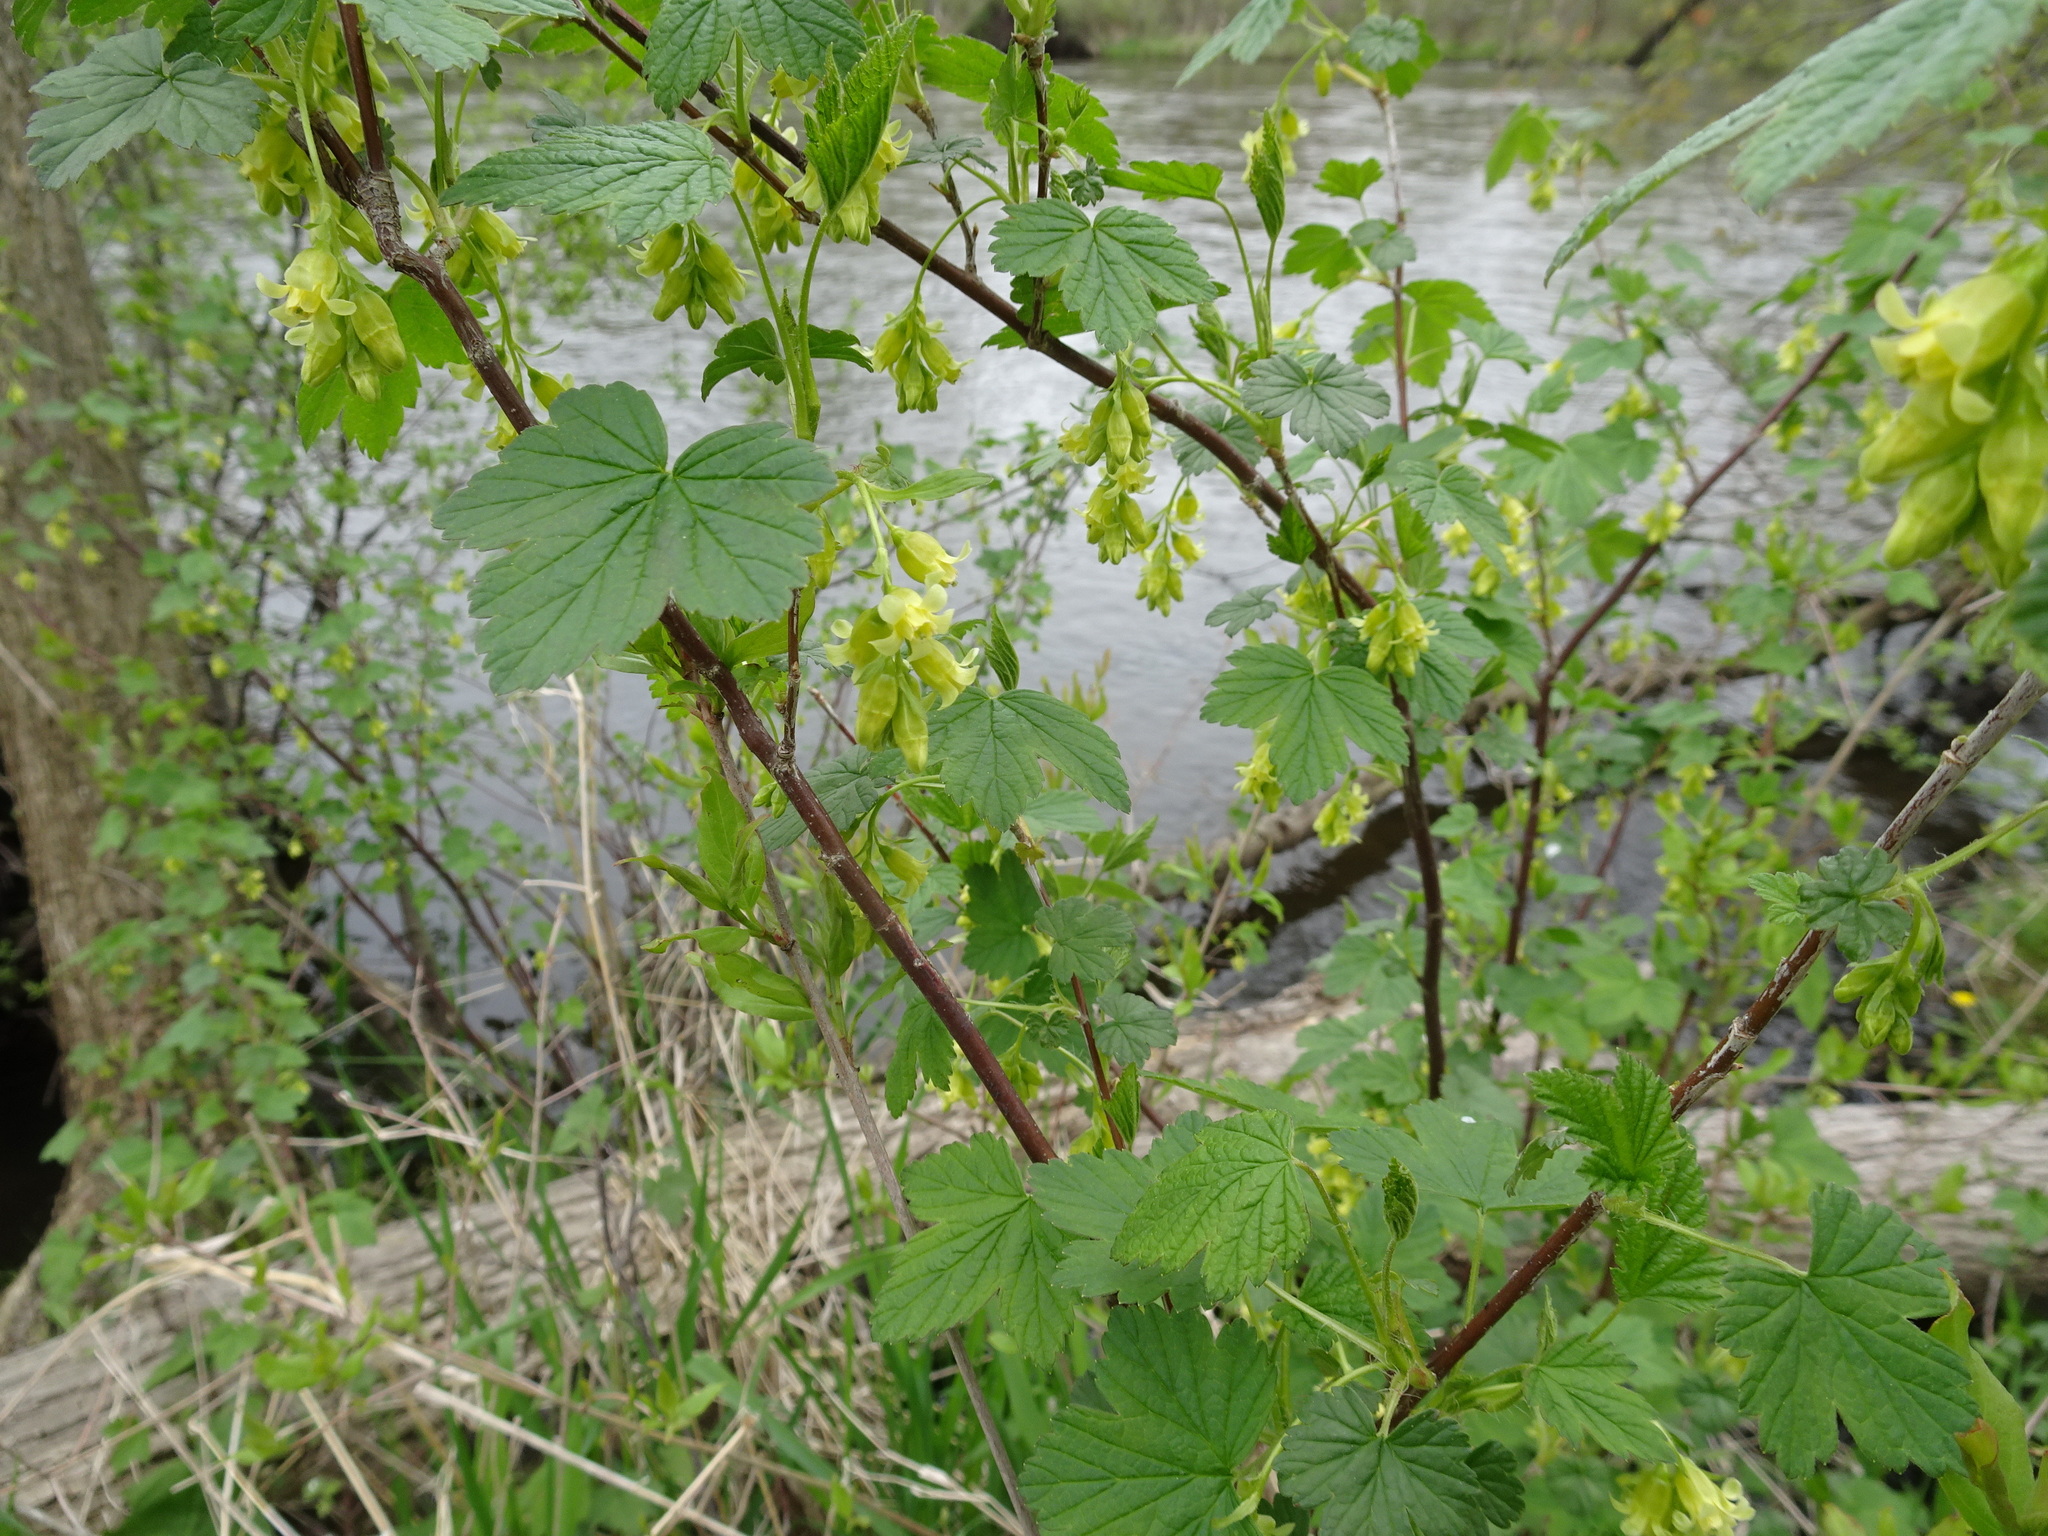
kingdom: Plantae
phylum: Tracheophyta
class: Magnoliopsida
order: Saxifragales
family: Grossulariaceae
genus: Ribes
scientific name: Ribes americanum
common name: American black currant
